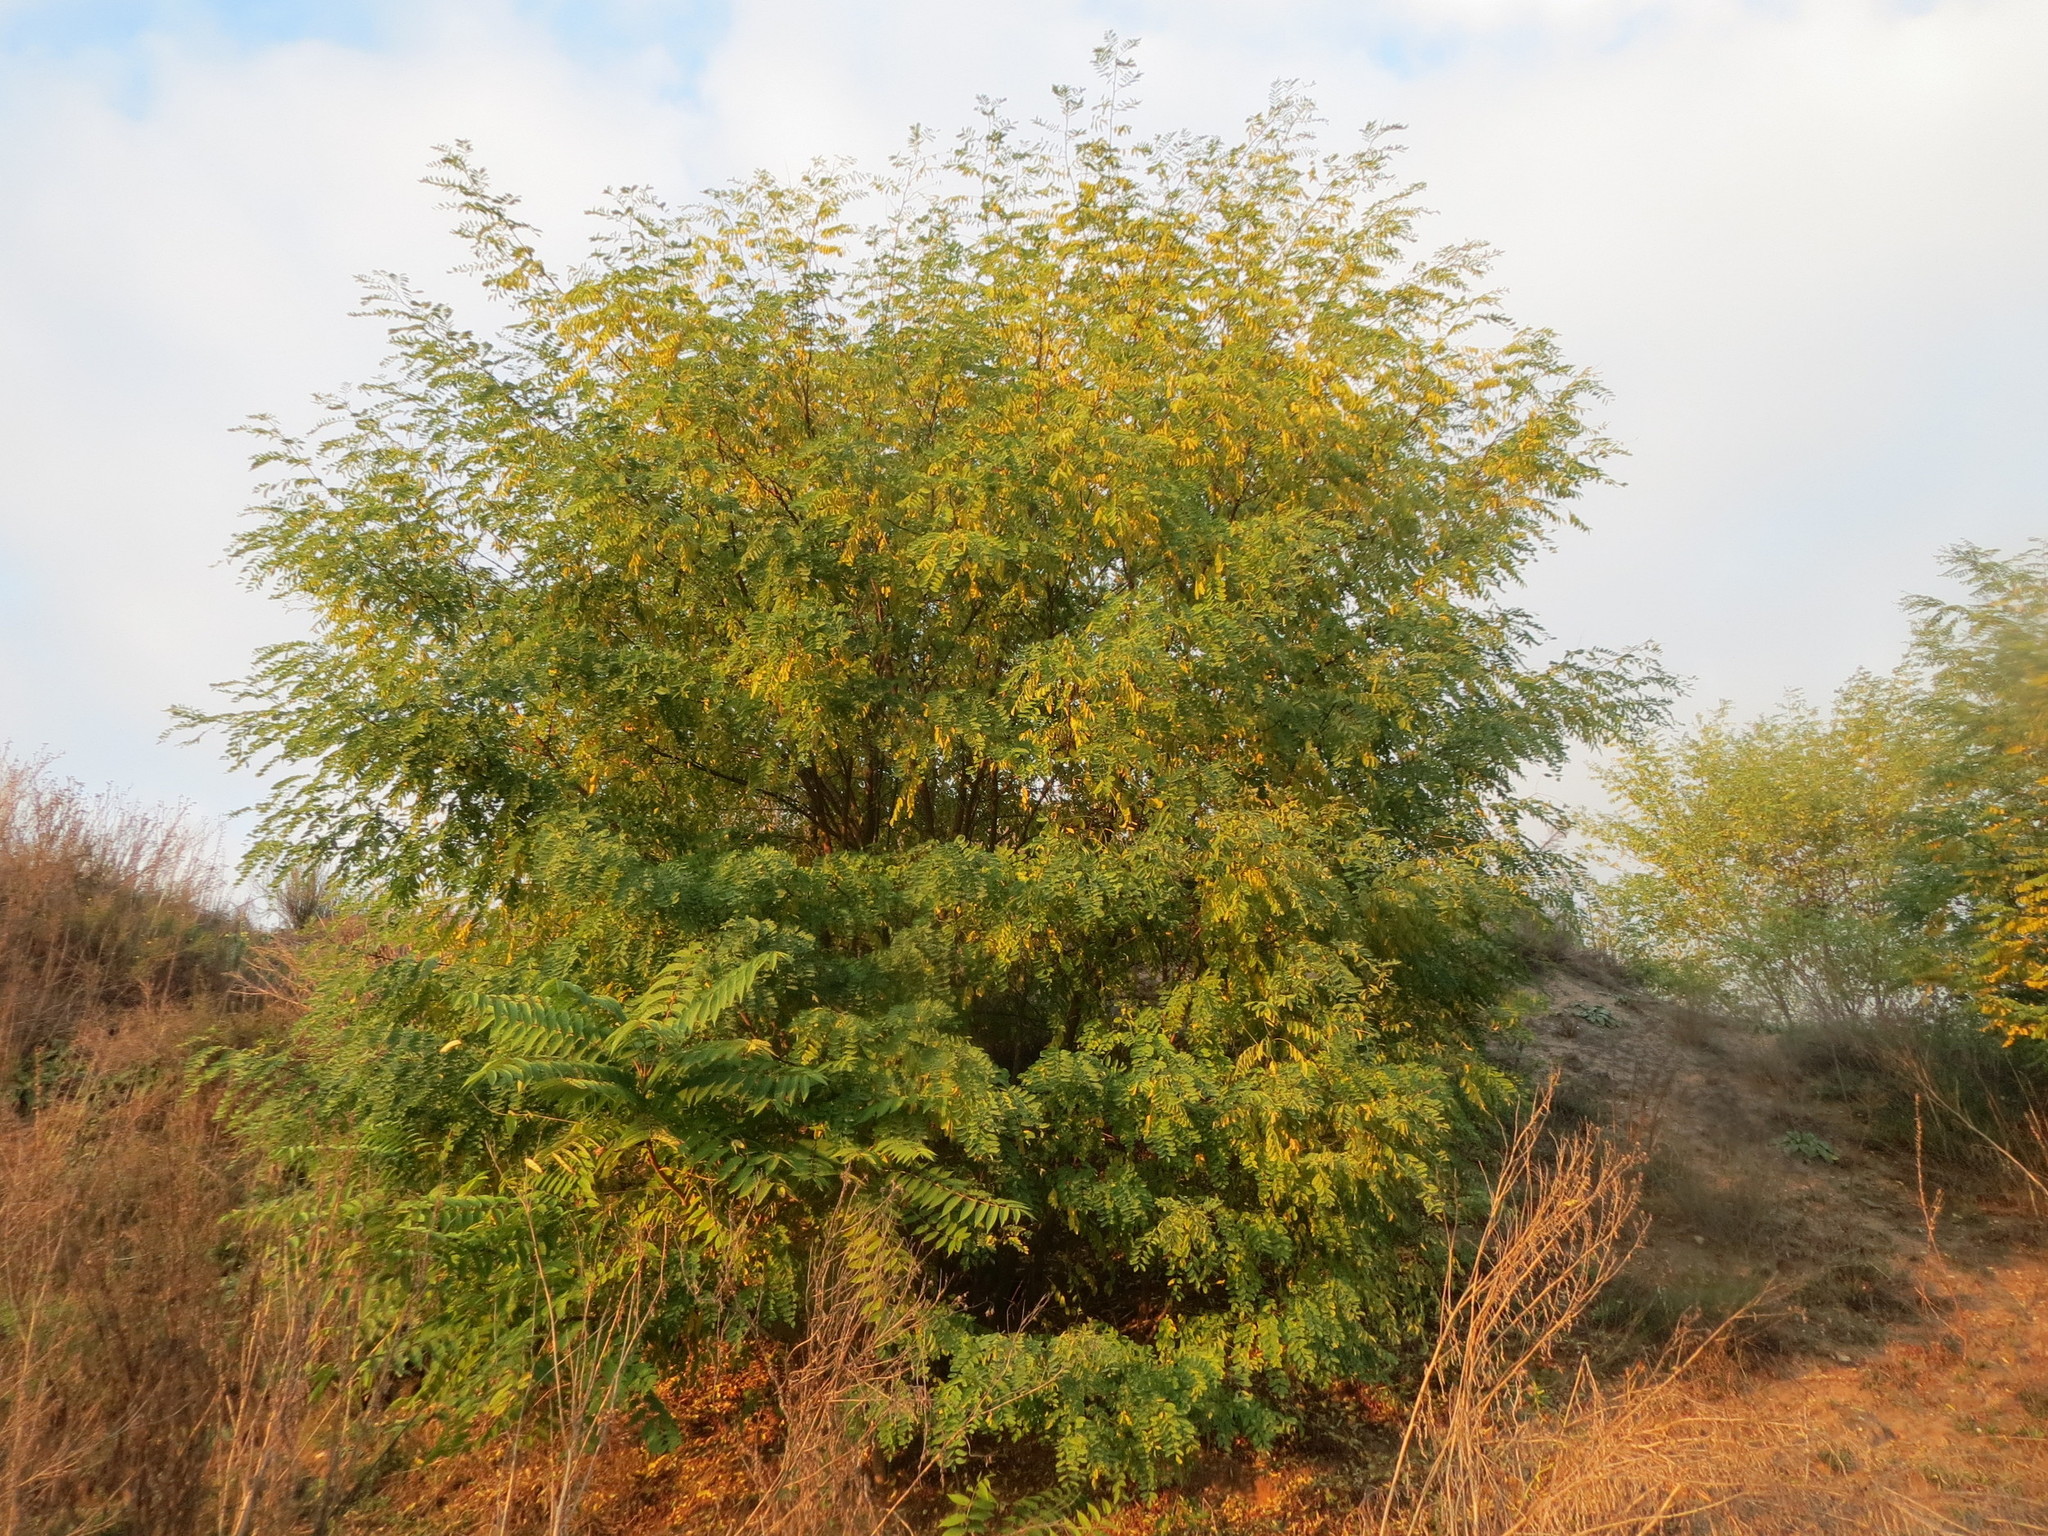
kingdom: Plantae
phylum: Tracheophyta
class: Magnoliopsida
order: Fabales
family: Fabaceae
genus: Robinia
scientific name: Robinia pseudoacacia
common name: Black locust
